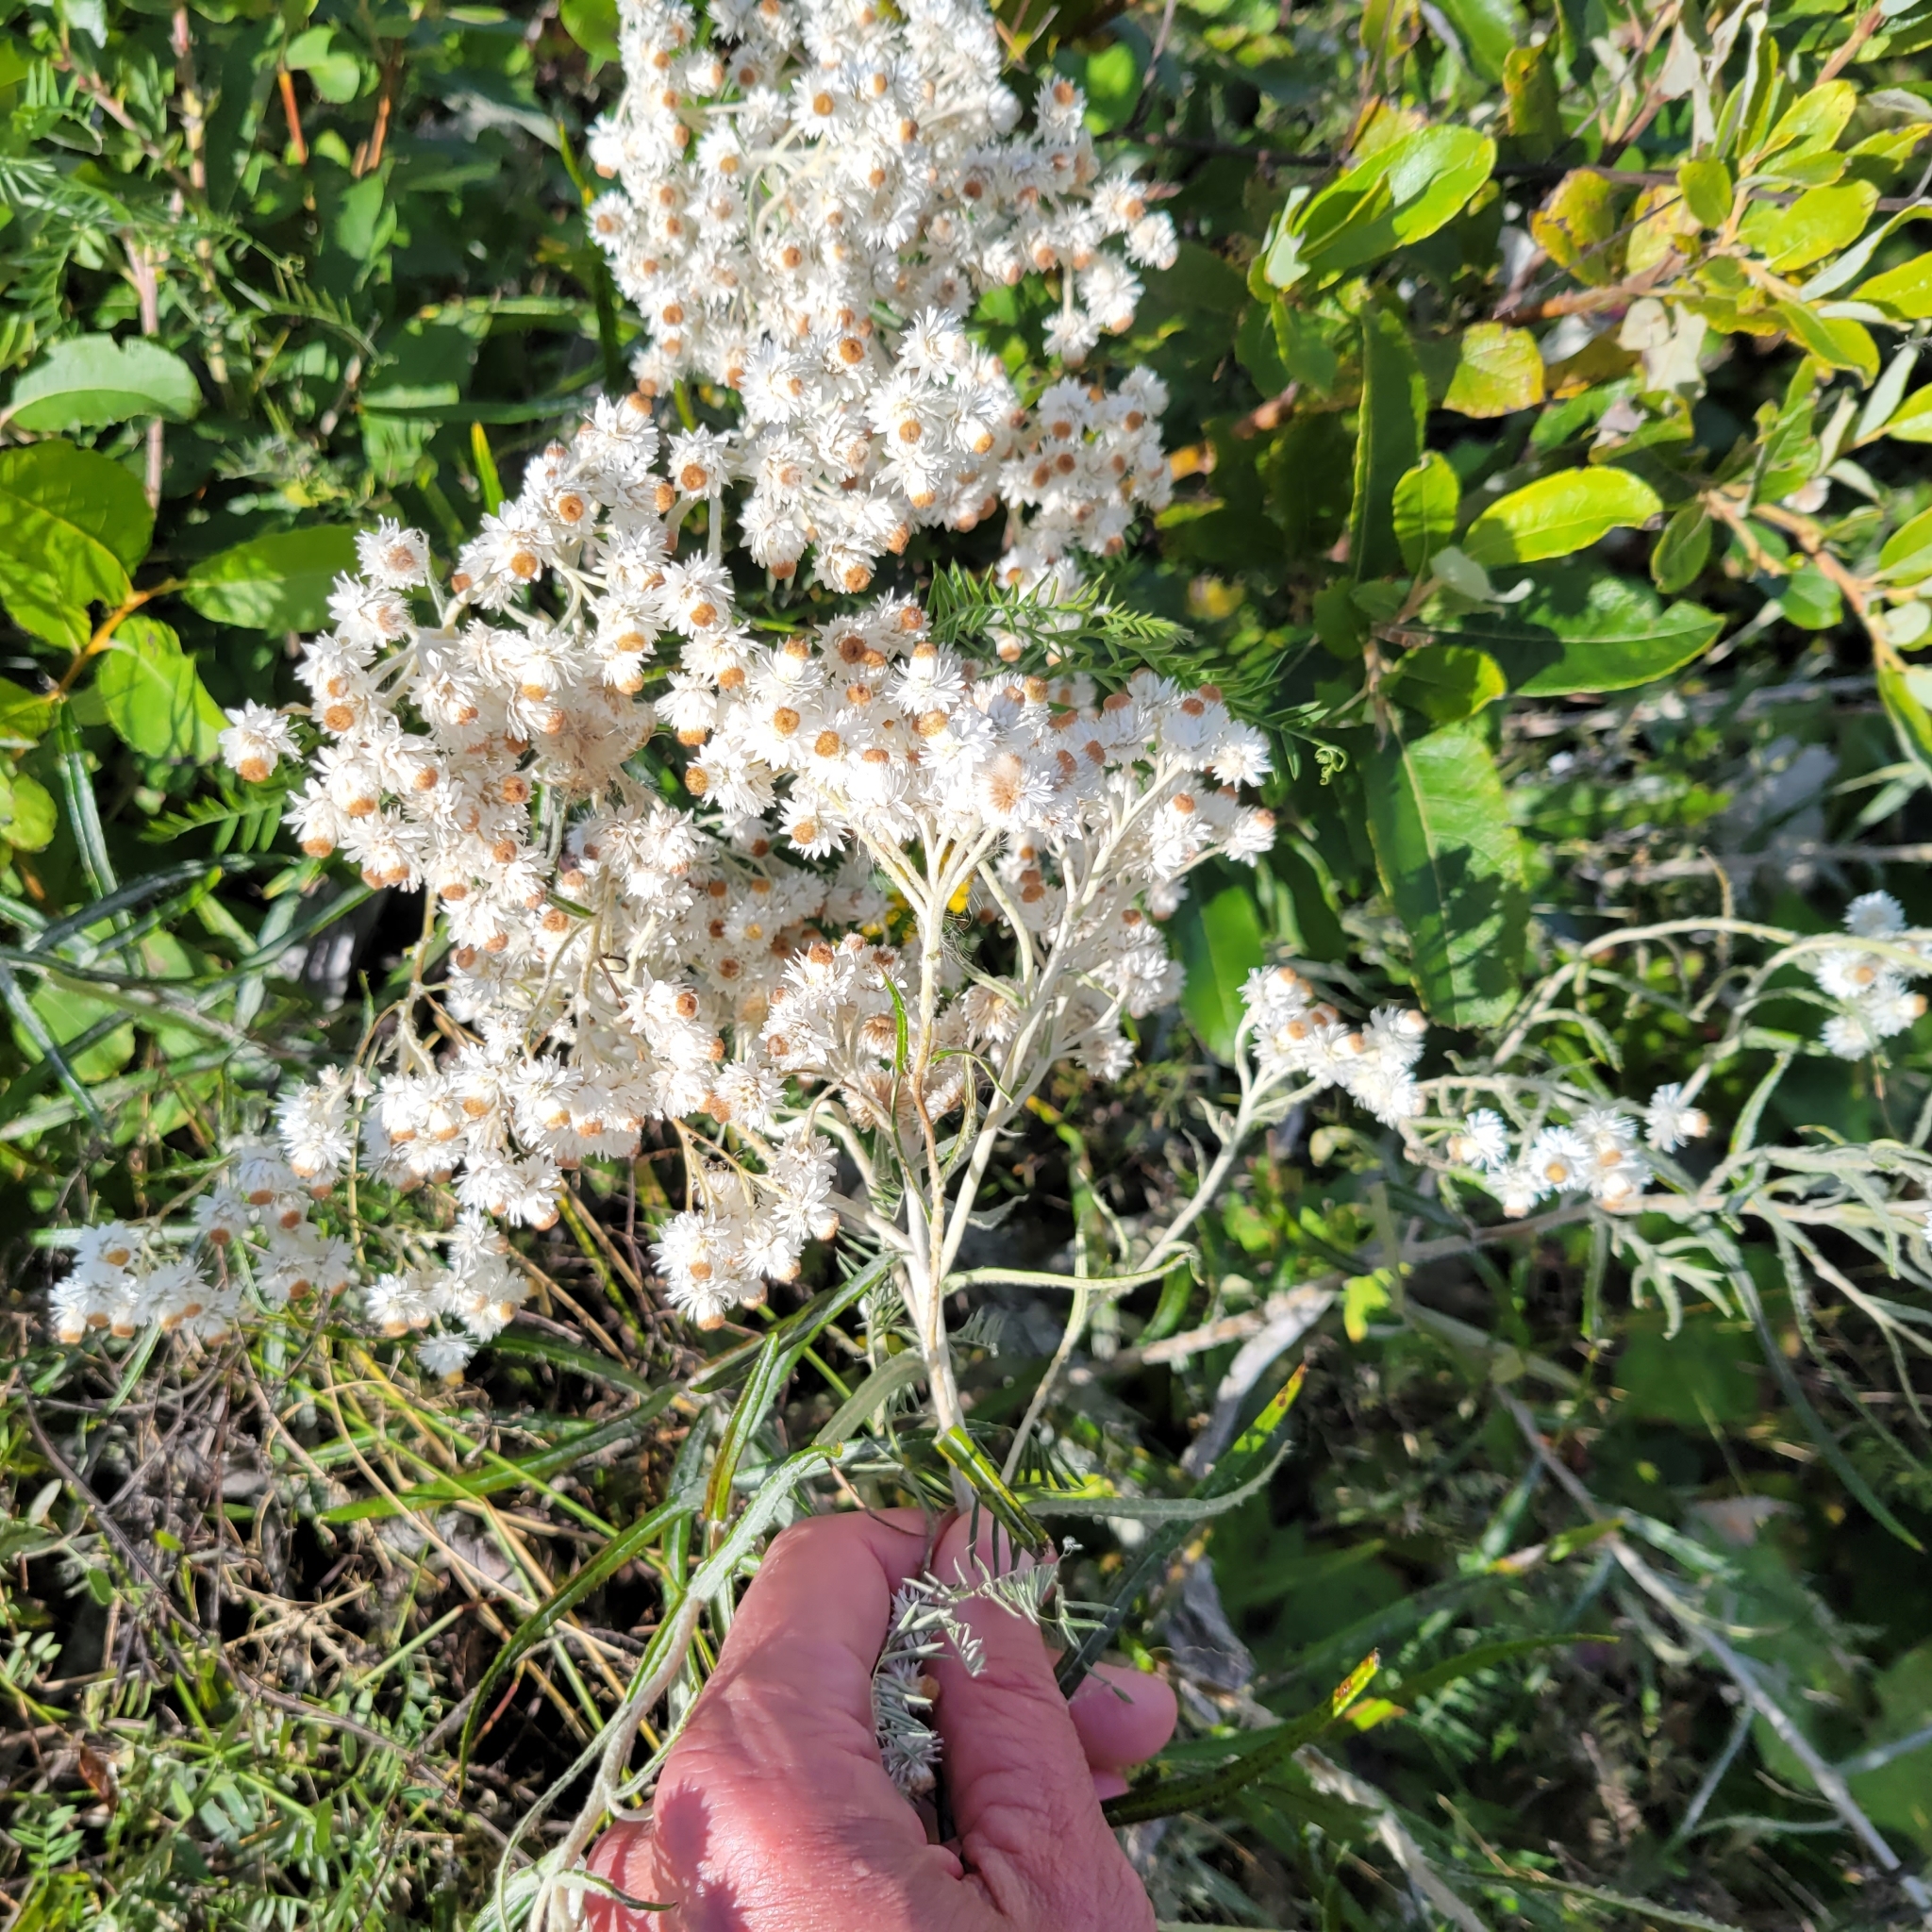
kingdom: Plantae
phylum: Tracheophyta
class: Magnoliopsida
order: Asterales
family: Asteraceae
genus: Anaphalis
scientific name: Anaphalis margaritacea
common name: Pearly everlasting
